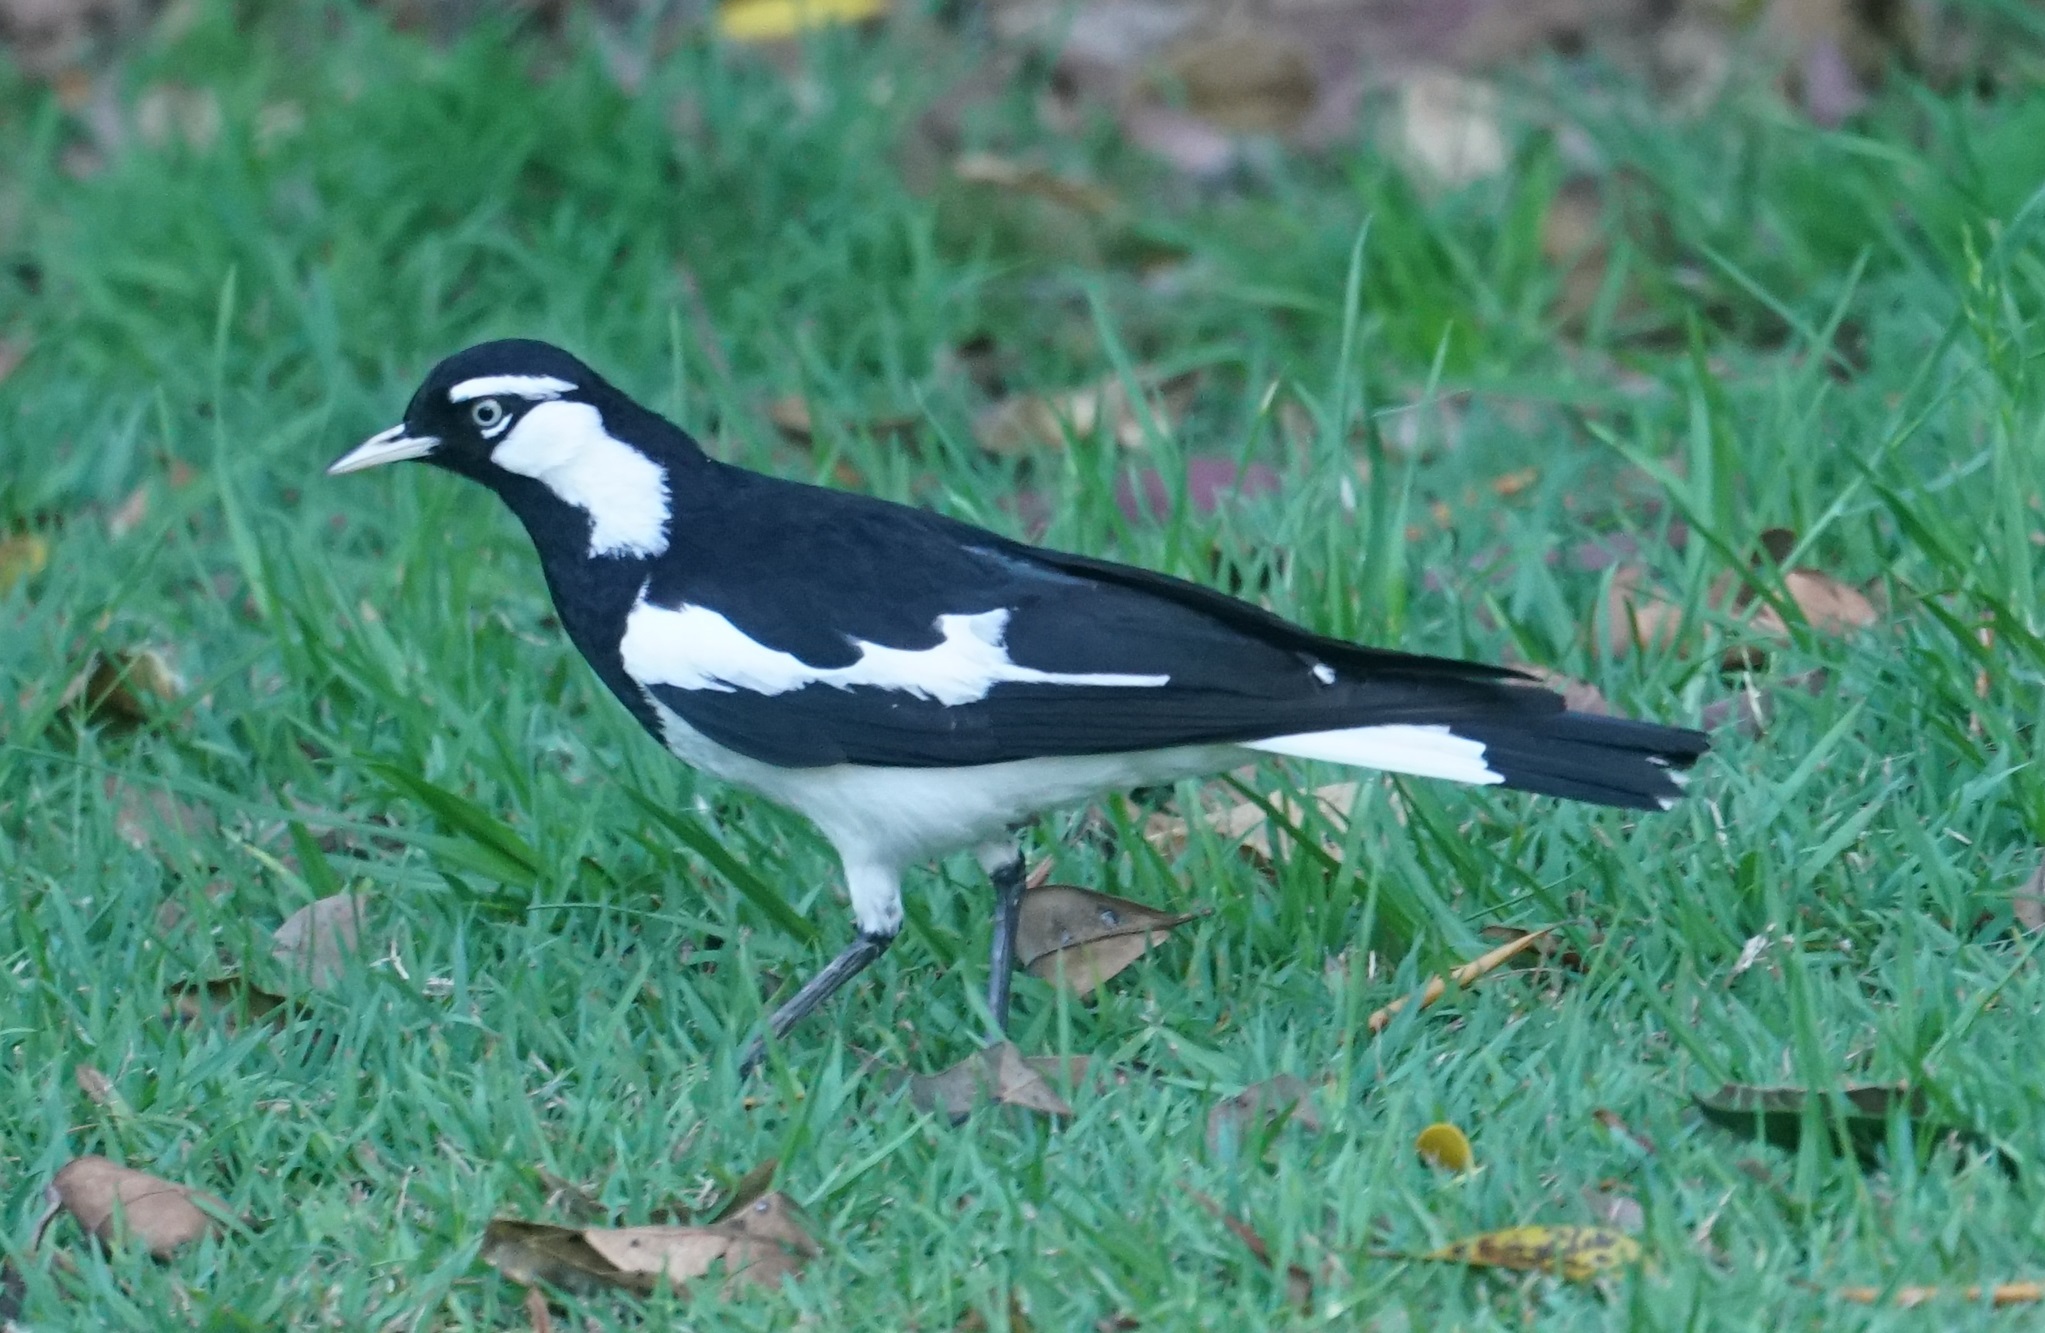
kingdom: Animalia
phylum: Chordata
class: Aves
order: Passeriformes
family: Monarchidae
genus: Grallina
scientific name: Grallina cyanoleuca
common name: Magpie-lark
